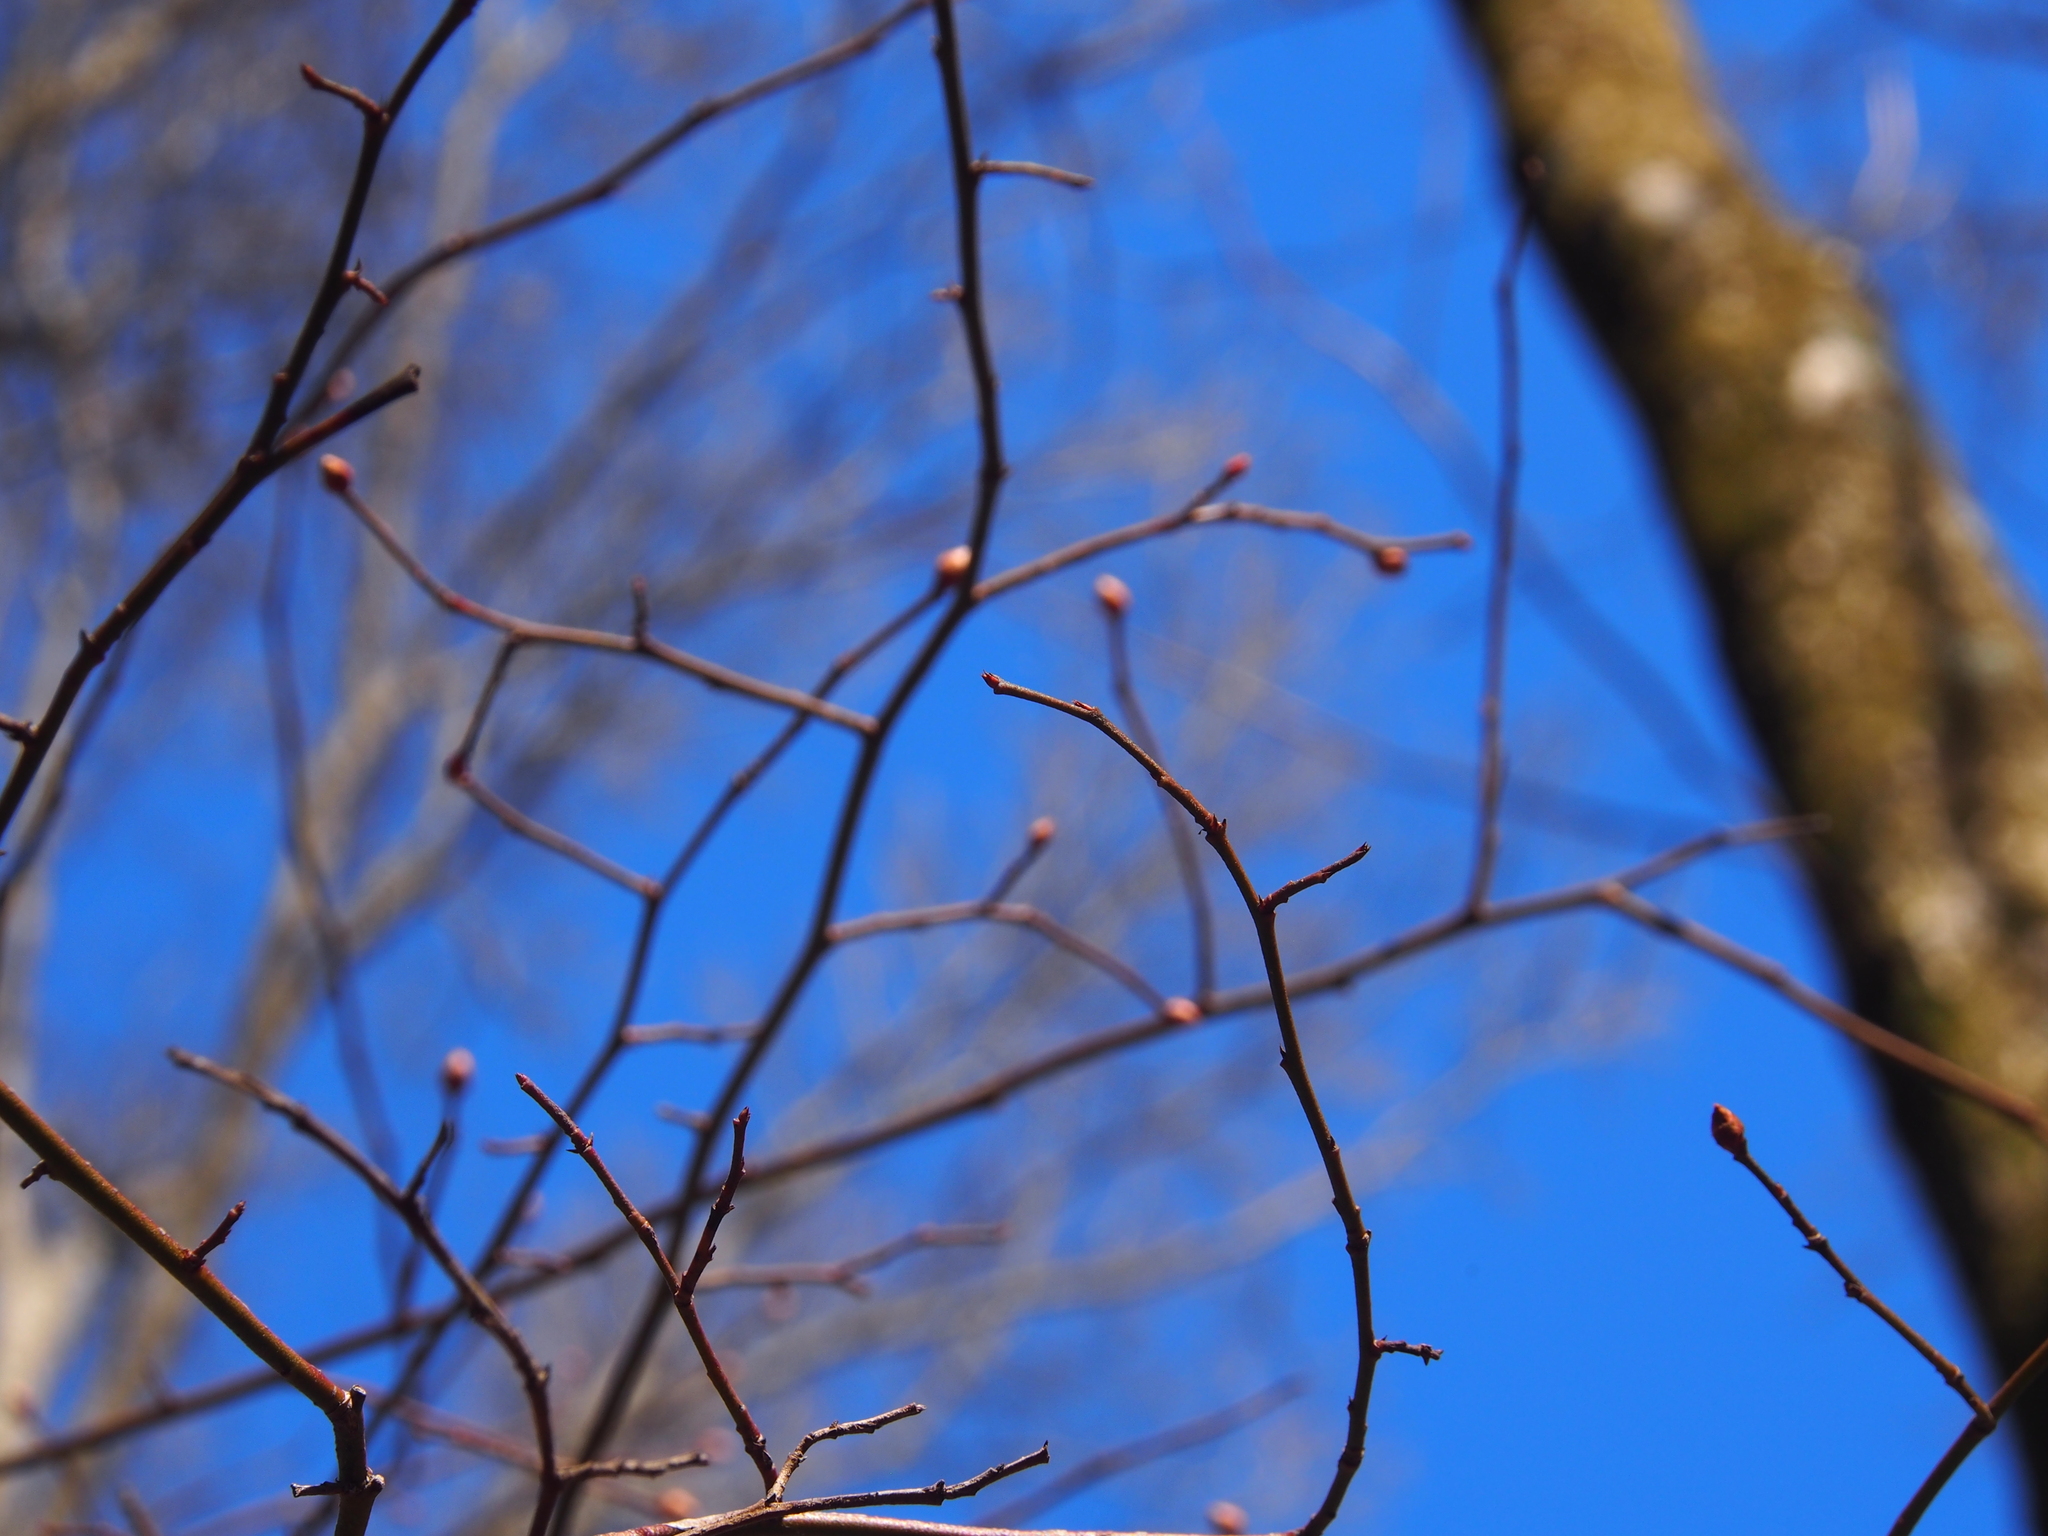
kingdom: Plantae
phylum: Tracheophyta
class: Magnoliopsida
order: Ericales
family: Ericaceae
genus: Vaccinium
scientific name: Vaccinium corymbosum
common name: Blueberry
